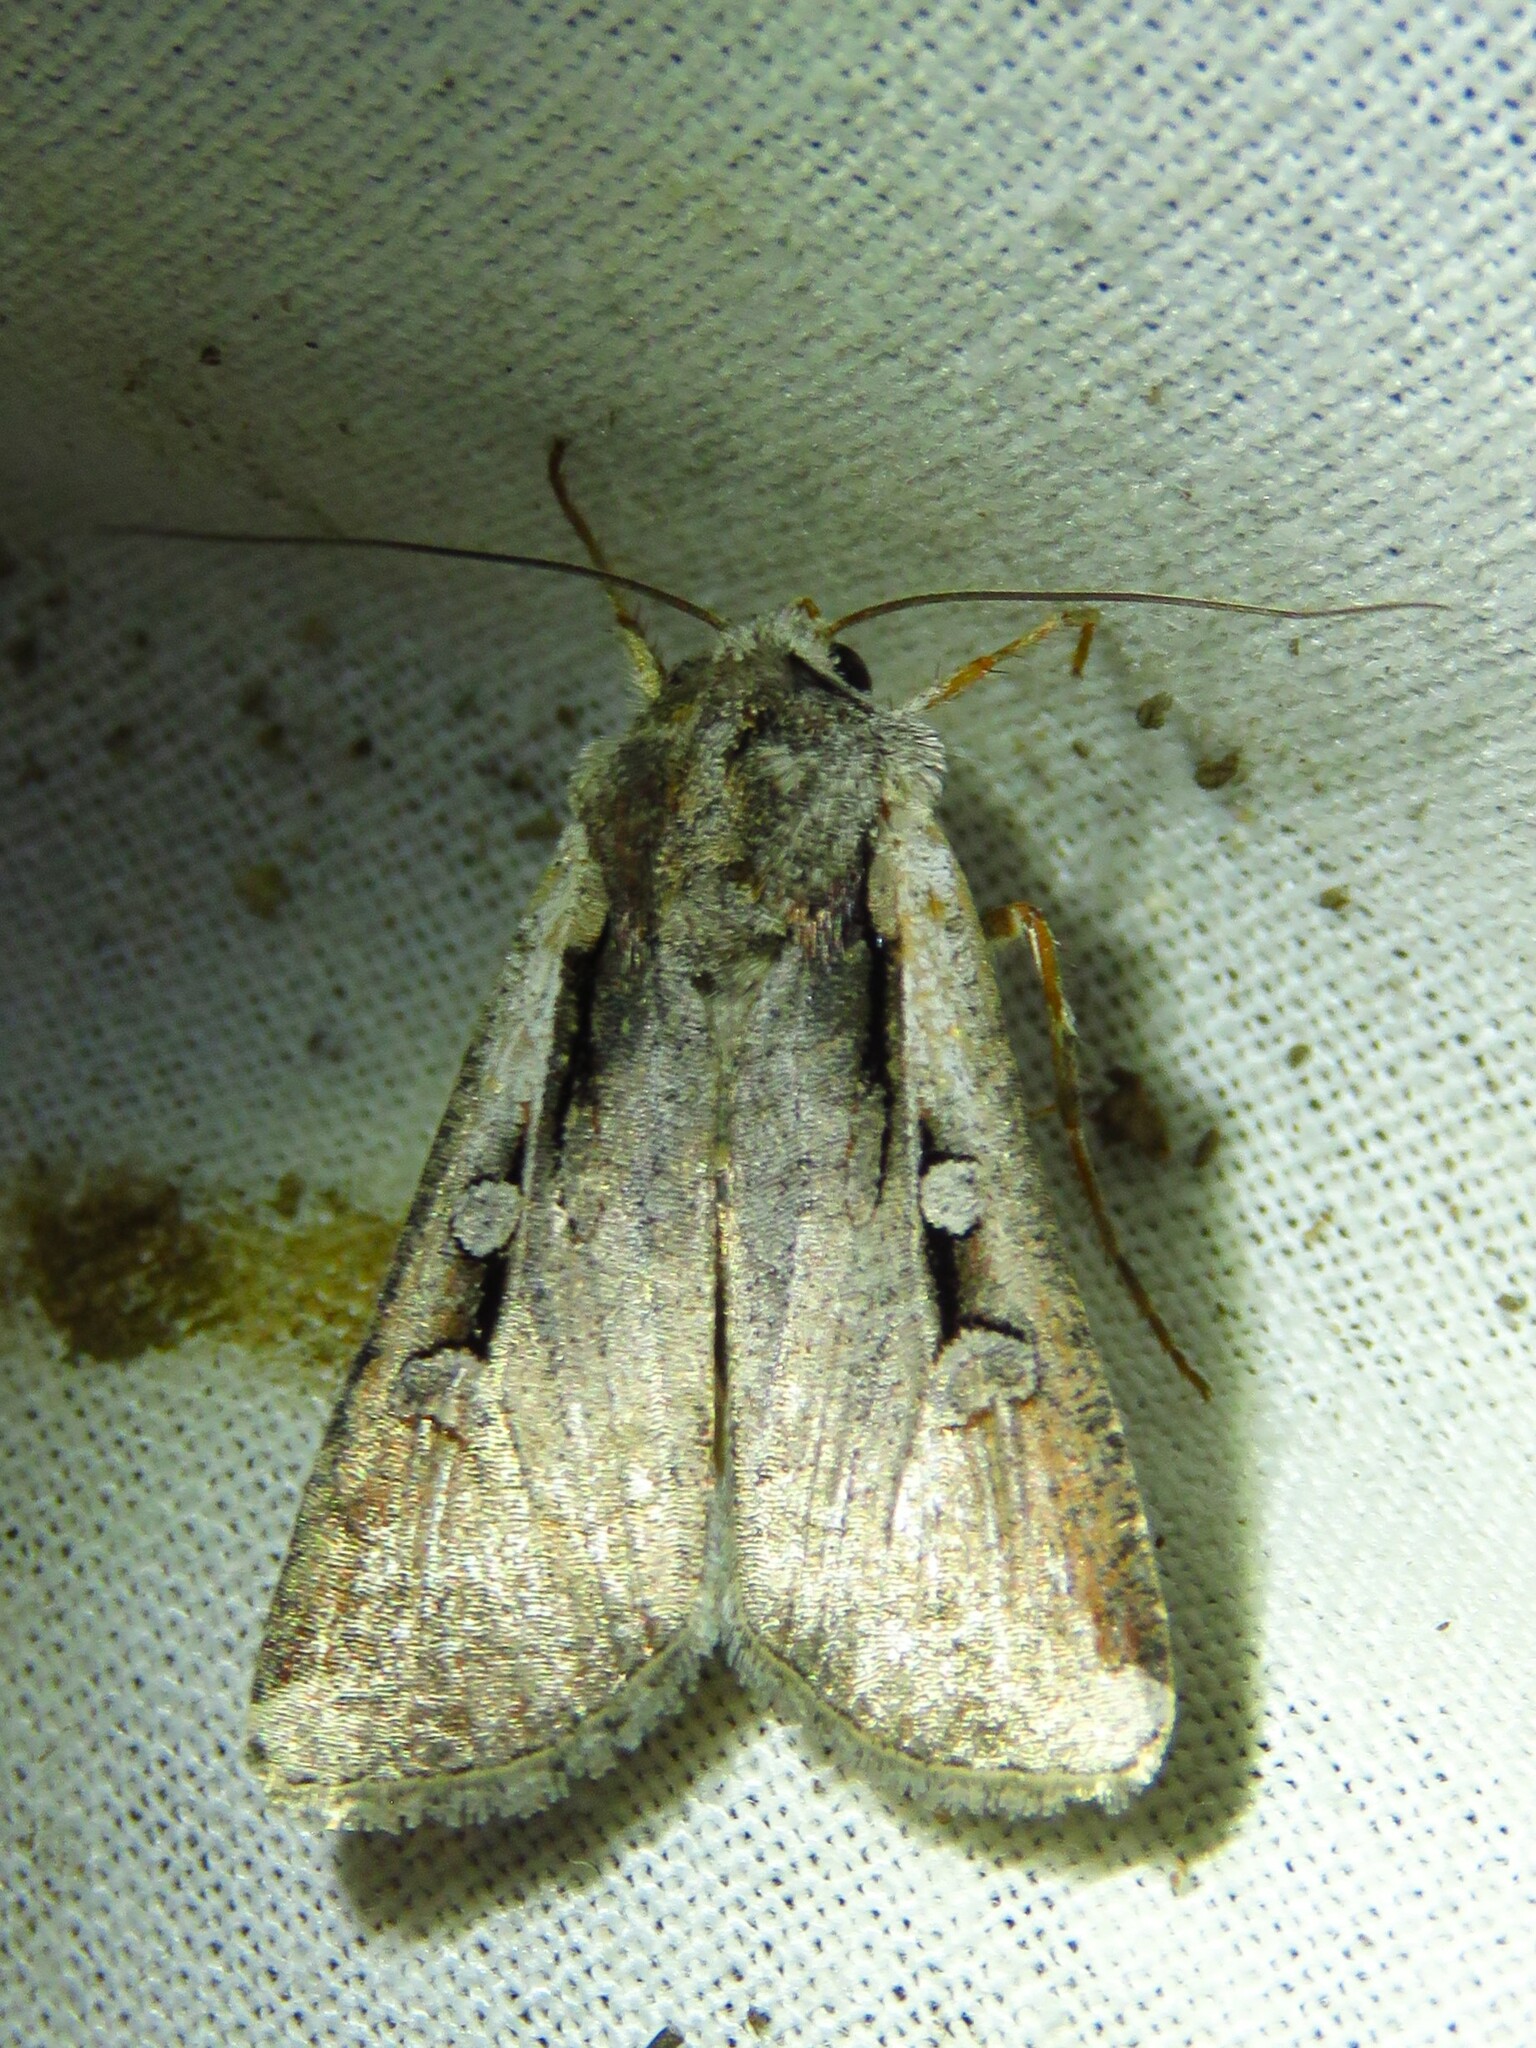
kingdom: Animalia
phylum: Arthropoda
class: Insecta
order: Lepidoptera
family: Noctuidae
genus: Hemieuxoa
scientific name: Hemieuxoa rudens
